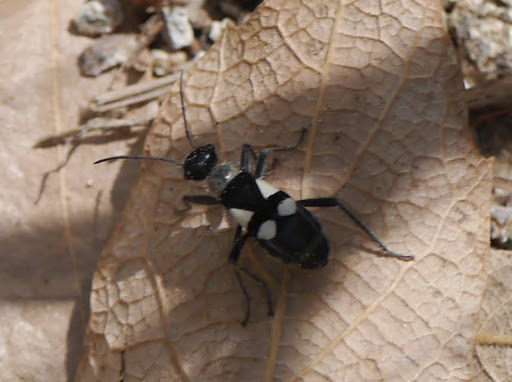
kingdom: Animalia
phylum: Arthropoda
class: Insecta
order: Hemiptera
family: Largidae
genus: Arhaphe
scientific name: Arhaphe arguta
